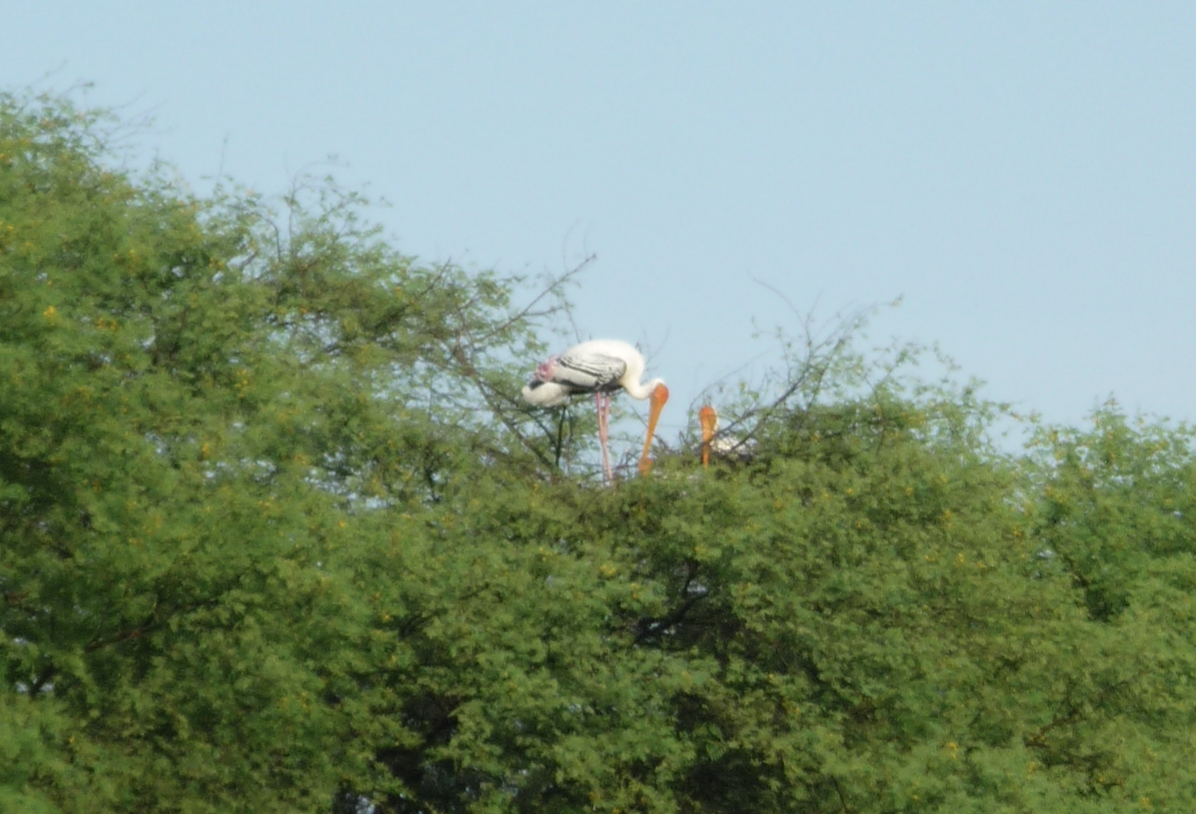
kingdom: Animalia
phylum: Chordata
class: Aves
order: Ciconiiformes
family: Ciconiidae
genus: Mycteria
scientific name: Mycteria leucocephala
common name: Painted stork
